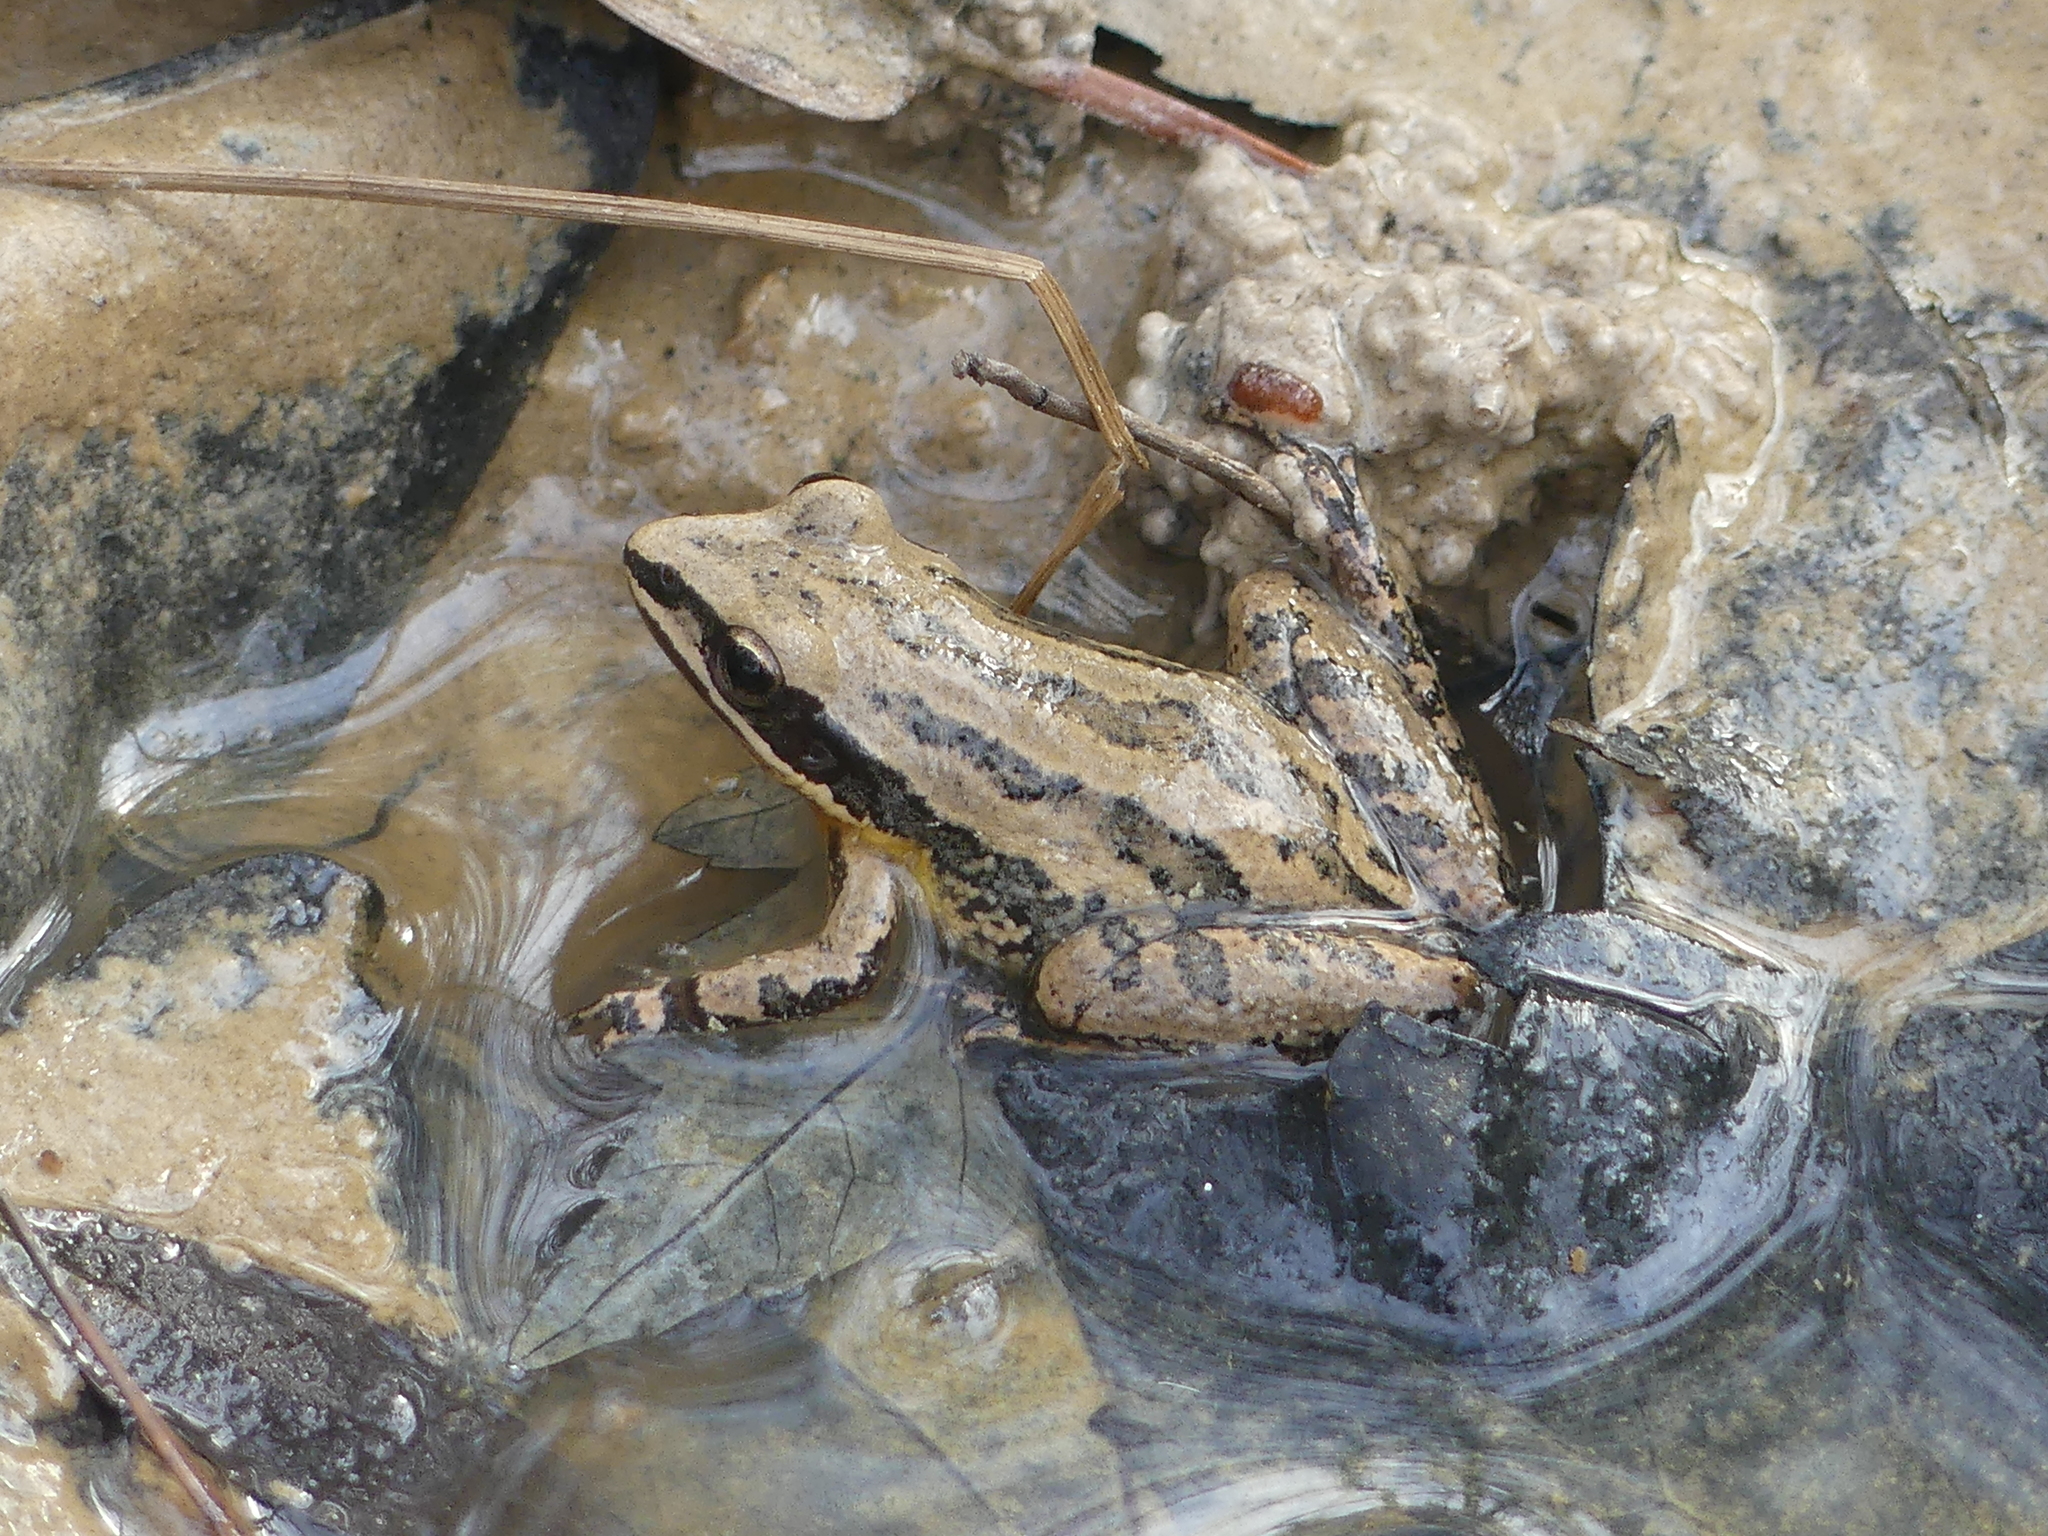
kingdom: Animalia
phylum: Chordata
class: Amphibia
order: Anura
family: Hylidae
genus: Pseudacris
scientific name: Pseudacris fouquettei
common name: Cajun chorus frog
